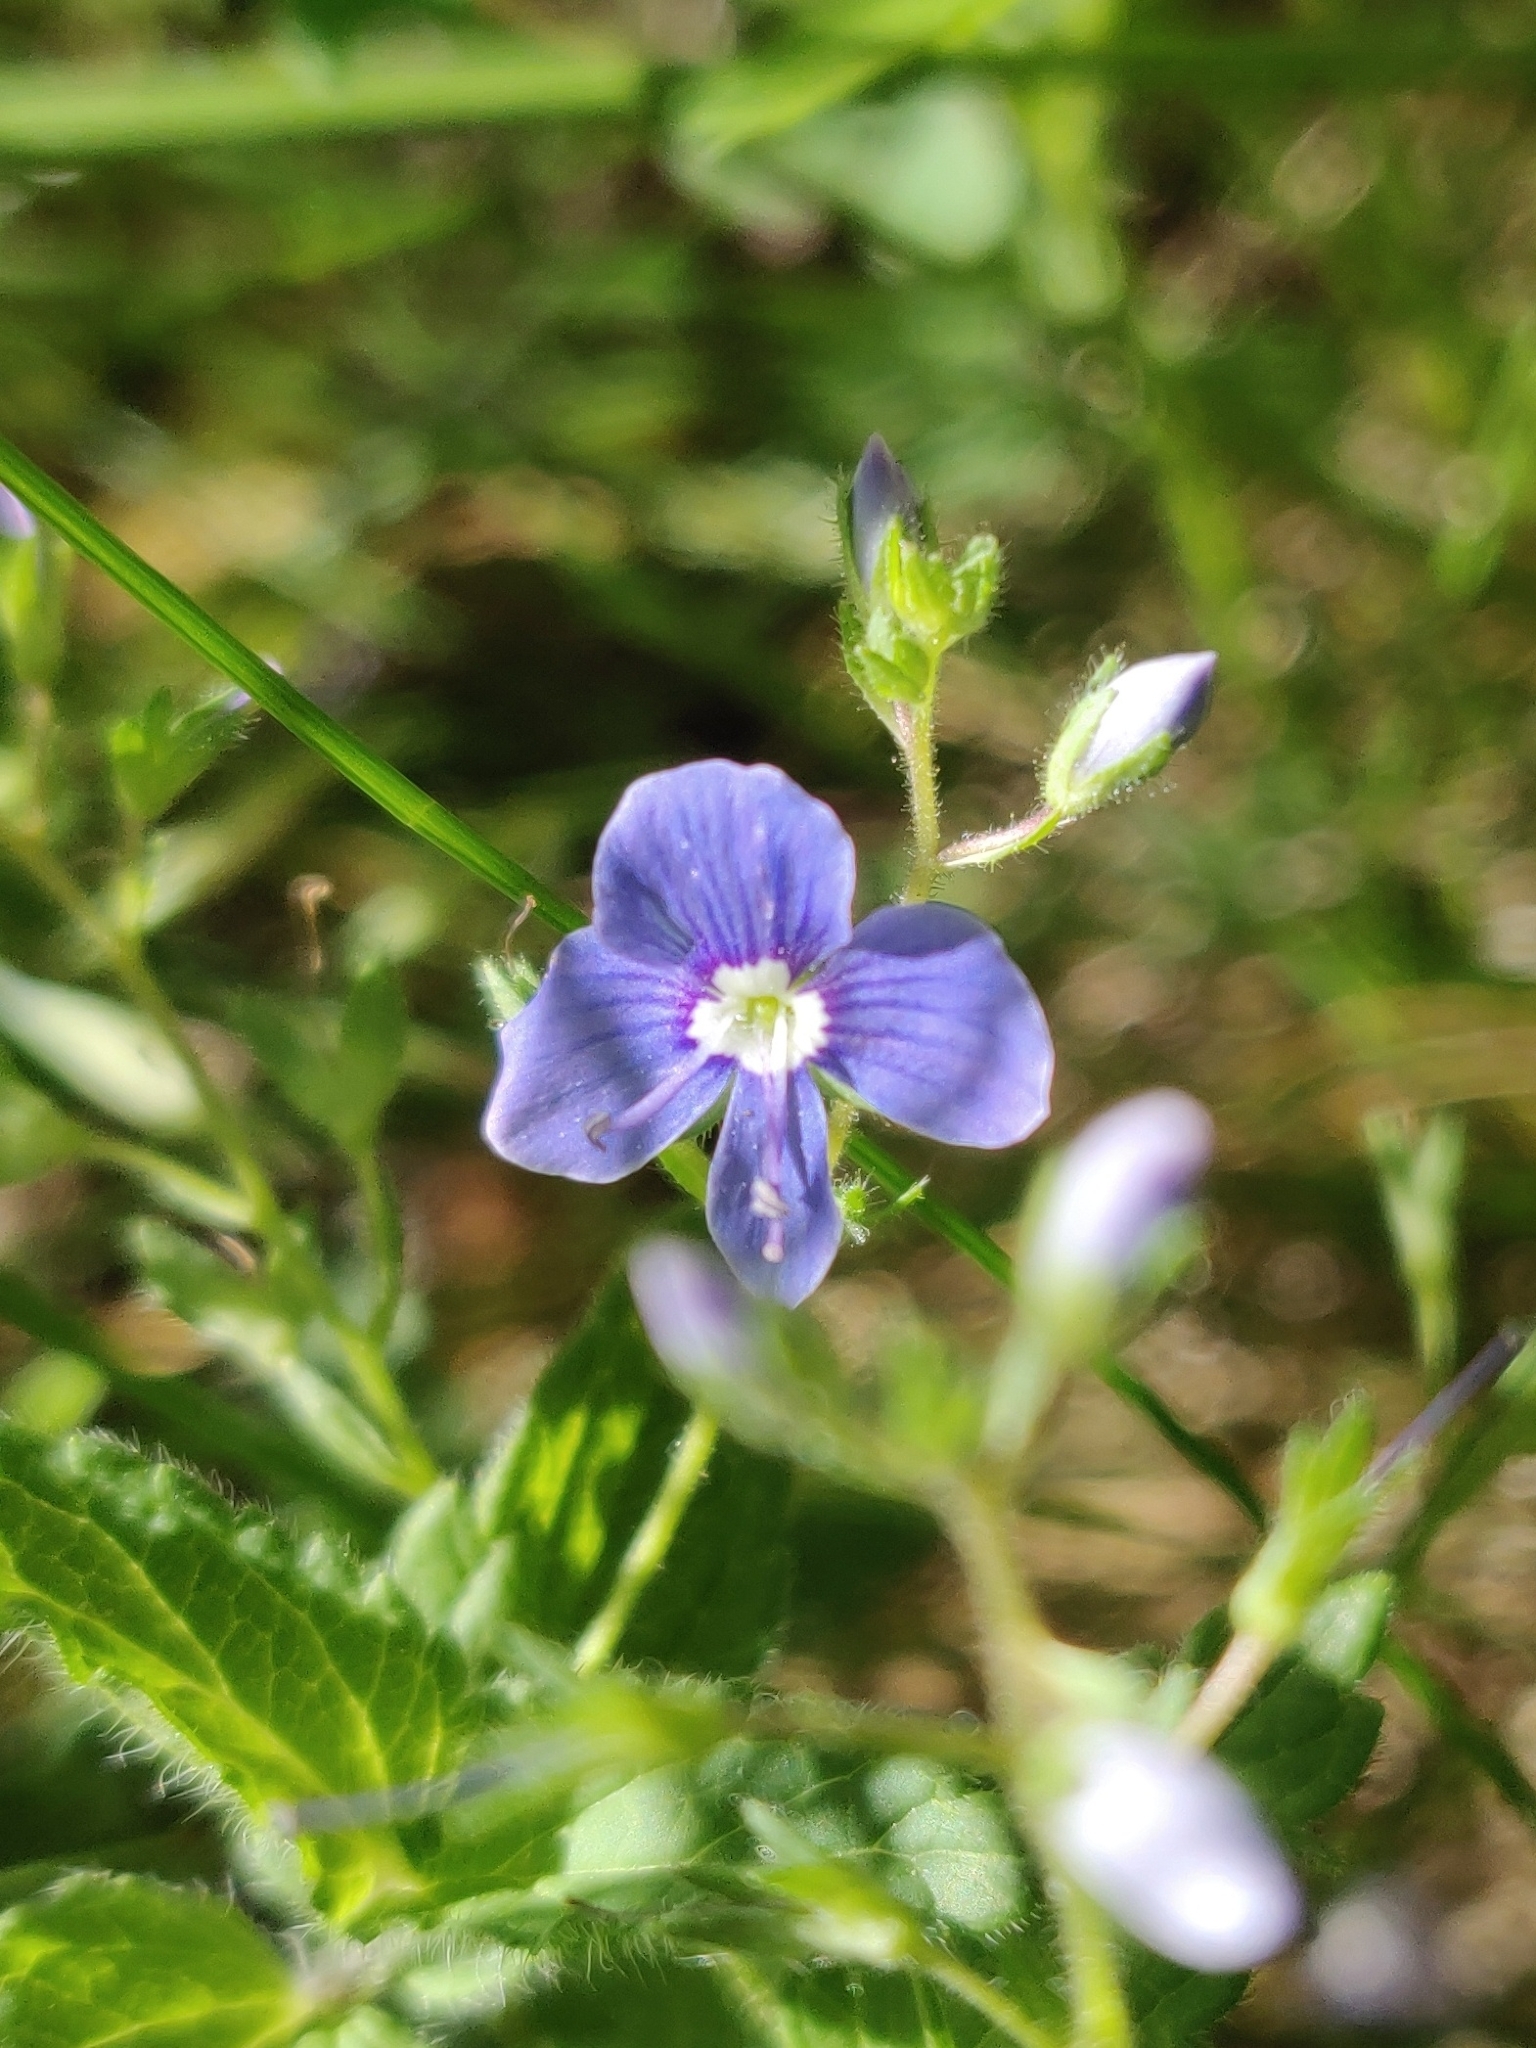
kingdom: Plantae
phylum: Tracheophyta
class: Magnoliopsida
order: Lamiales
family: Plantaginaceae
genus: Veronica
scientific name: Veronica chamaedrys
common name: Germander speedwell
